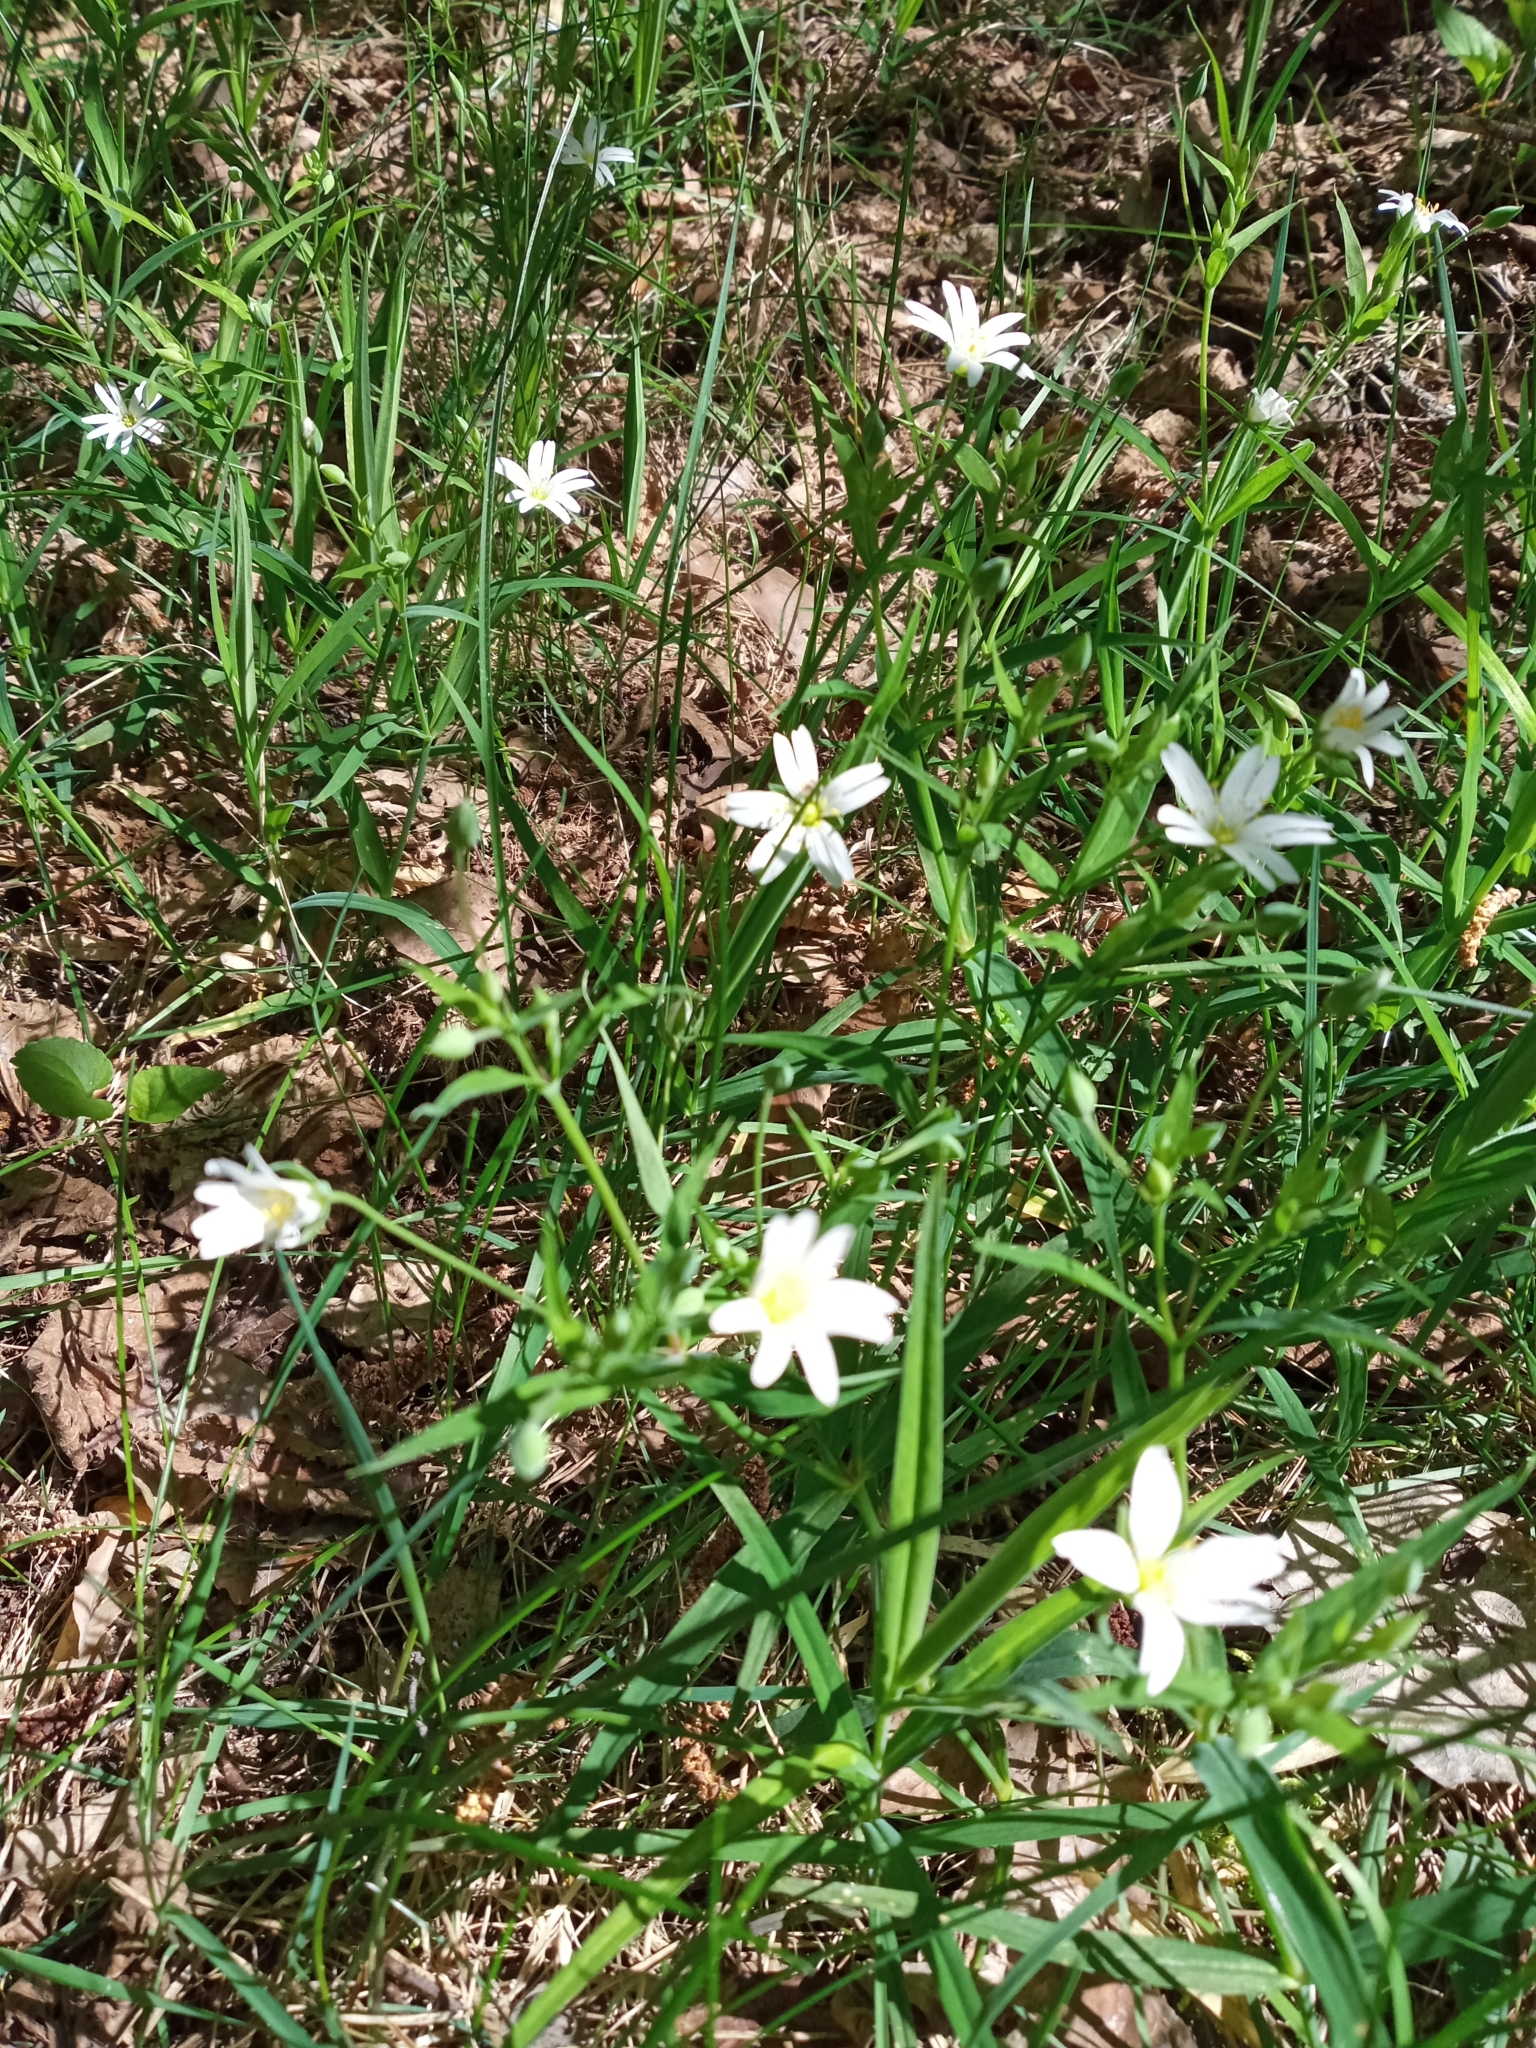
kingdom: Plantae
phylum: Tracheophyta
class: Magnoliopsida
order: Caryophyllales
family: Caryophyllaceae
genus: Rabelera
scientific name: Rabelera holostea
